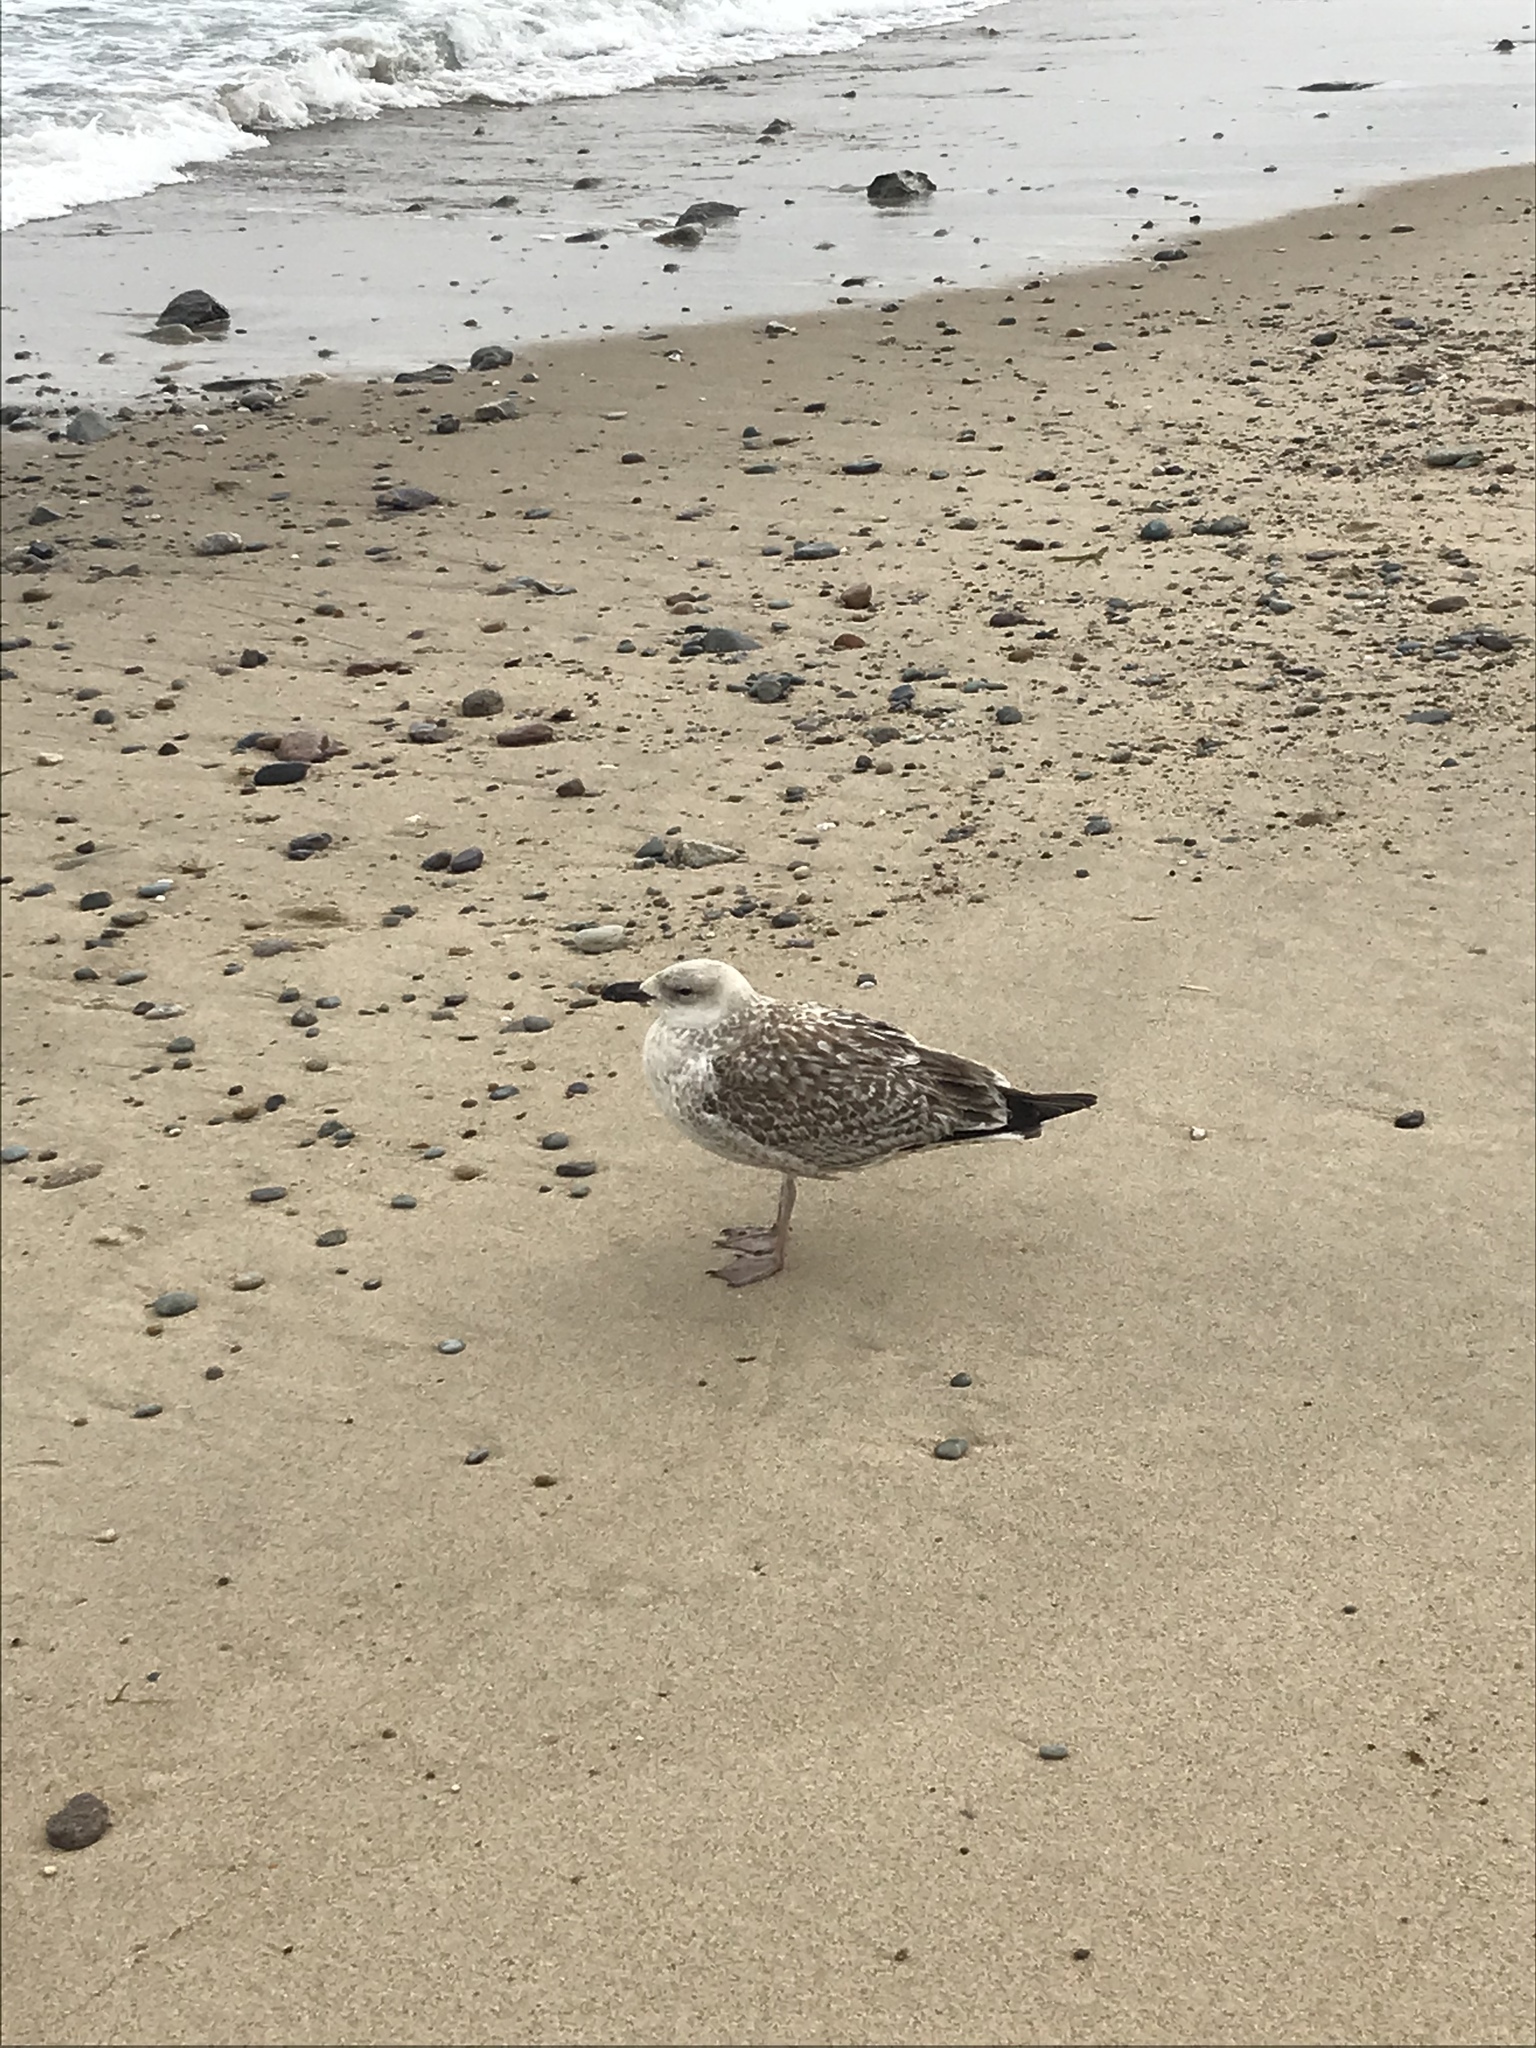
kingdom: Animalia
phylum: Chordata
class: Aves
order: Charadriiformes
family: Laridae
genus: Larus
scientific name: Larus marinus
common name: Great black-backed gull
